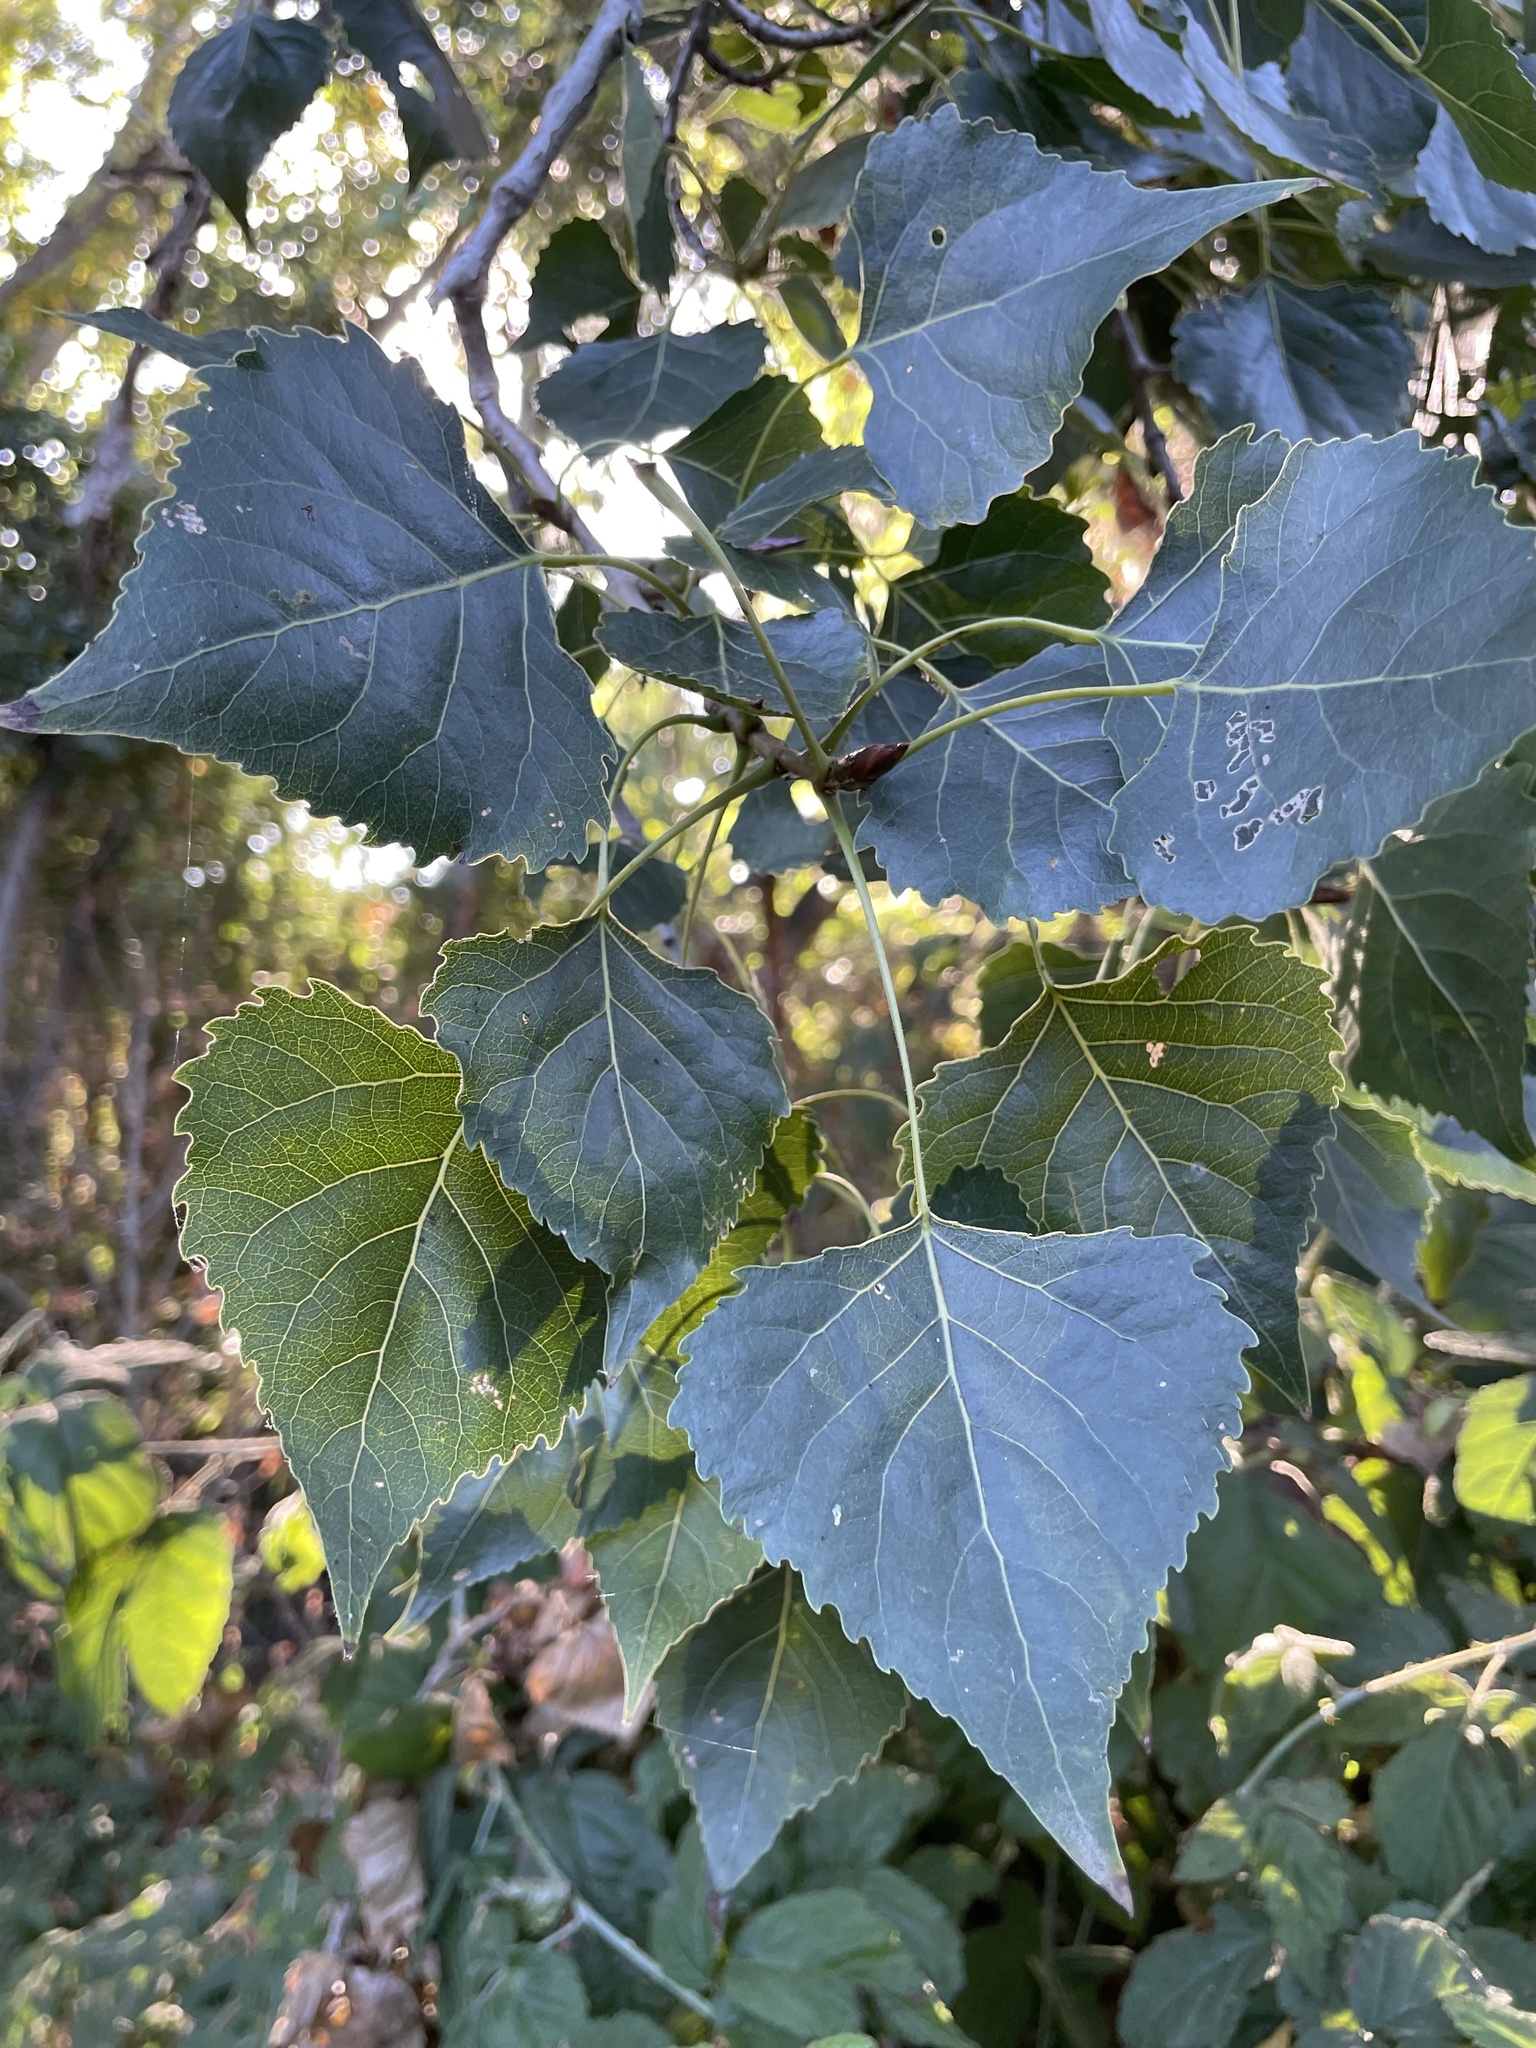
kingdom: Plantae
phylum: Tracheophyta
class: Magnoliopsida
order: Malpighiales
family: Salicaceae
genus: Populus
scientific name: Populus fremontii
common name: Fremont's cottonwood
